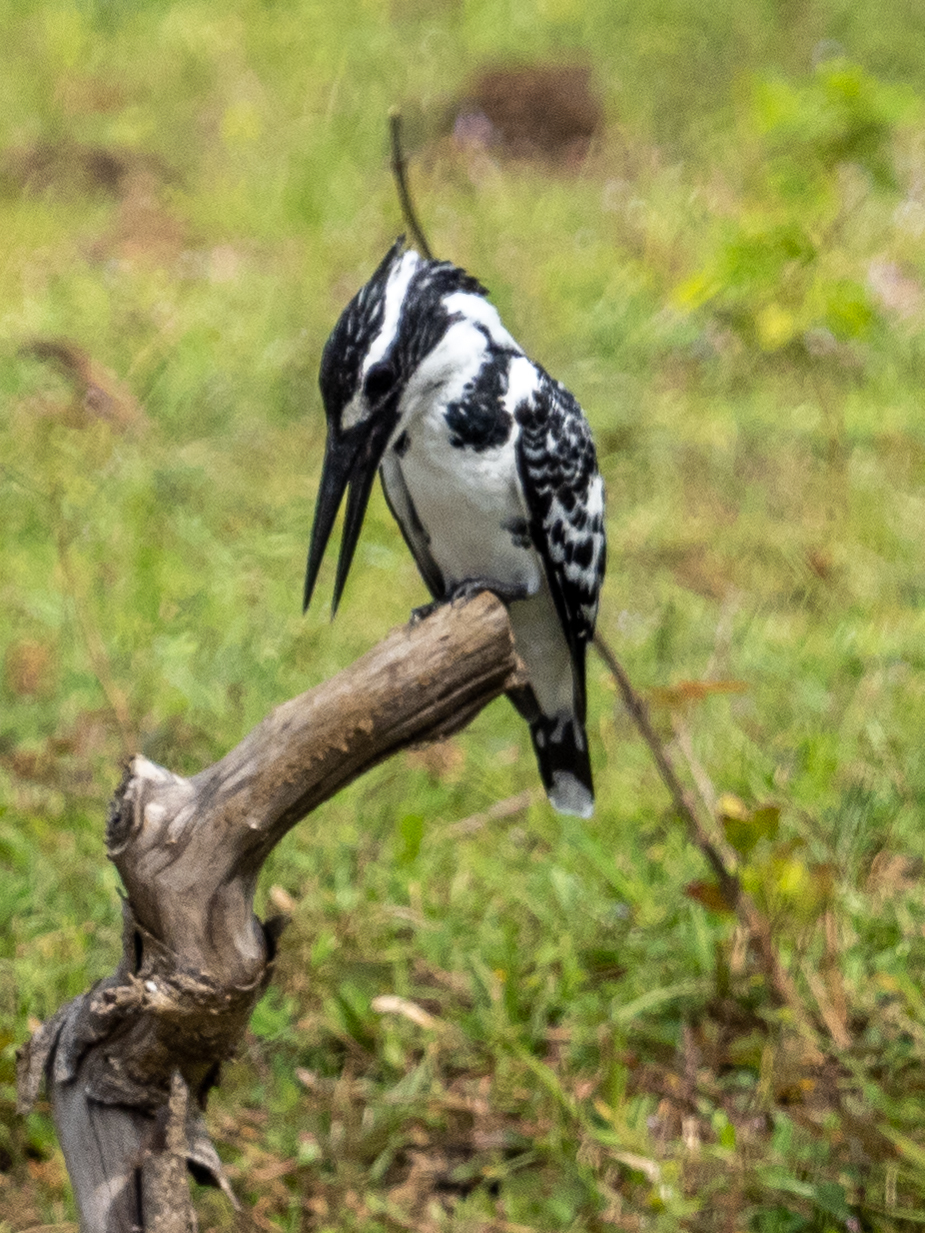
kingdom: Animalia
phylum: Chordata
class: Aves
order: Coraciiformes
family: Alcedinidae
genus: Ceryle
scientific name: Ceryle rudis
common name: Pied kingfisher
